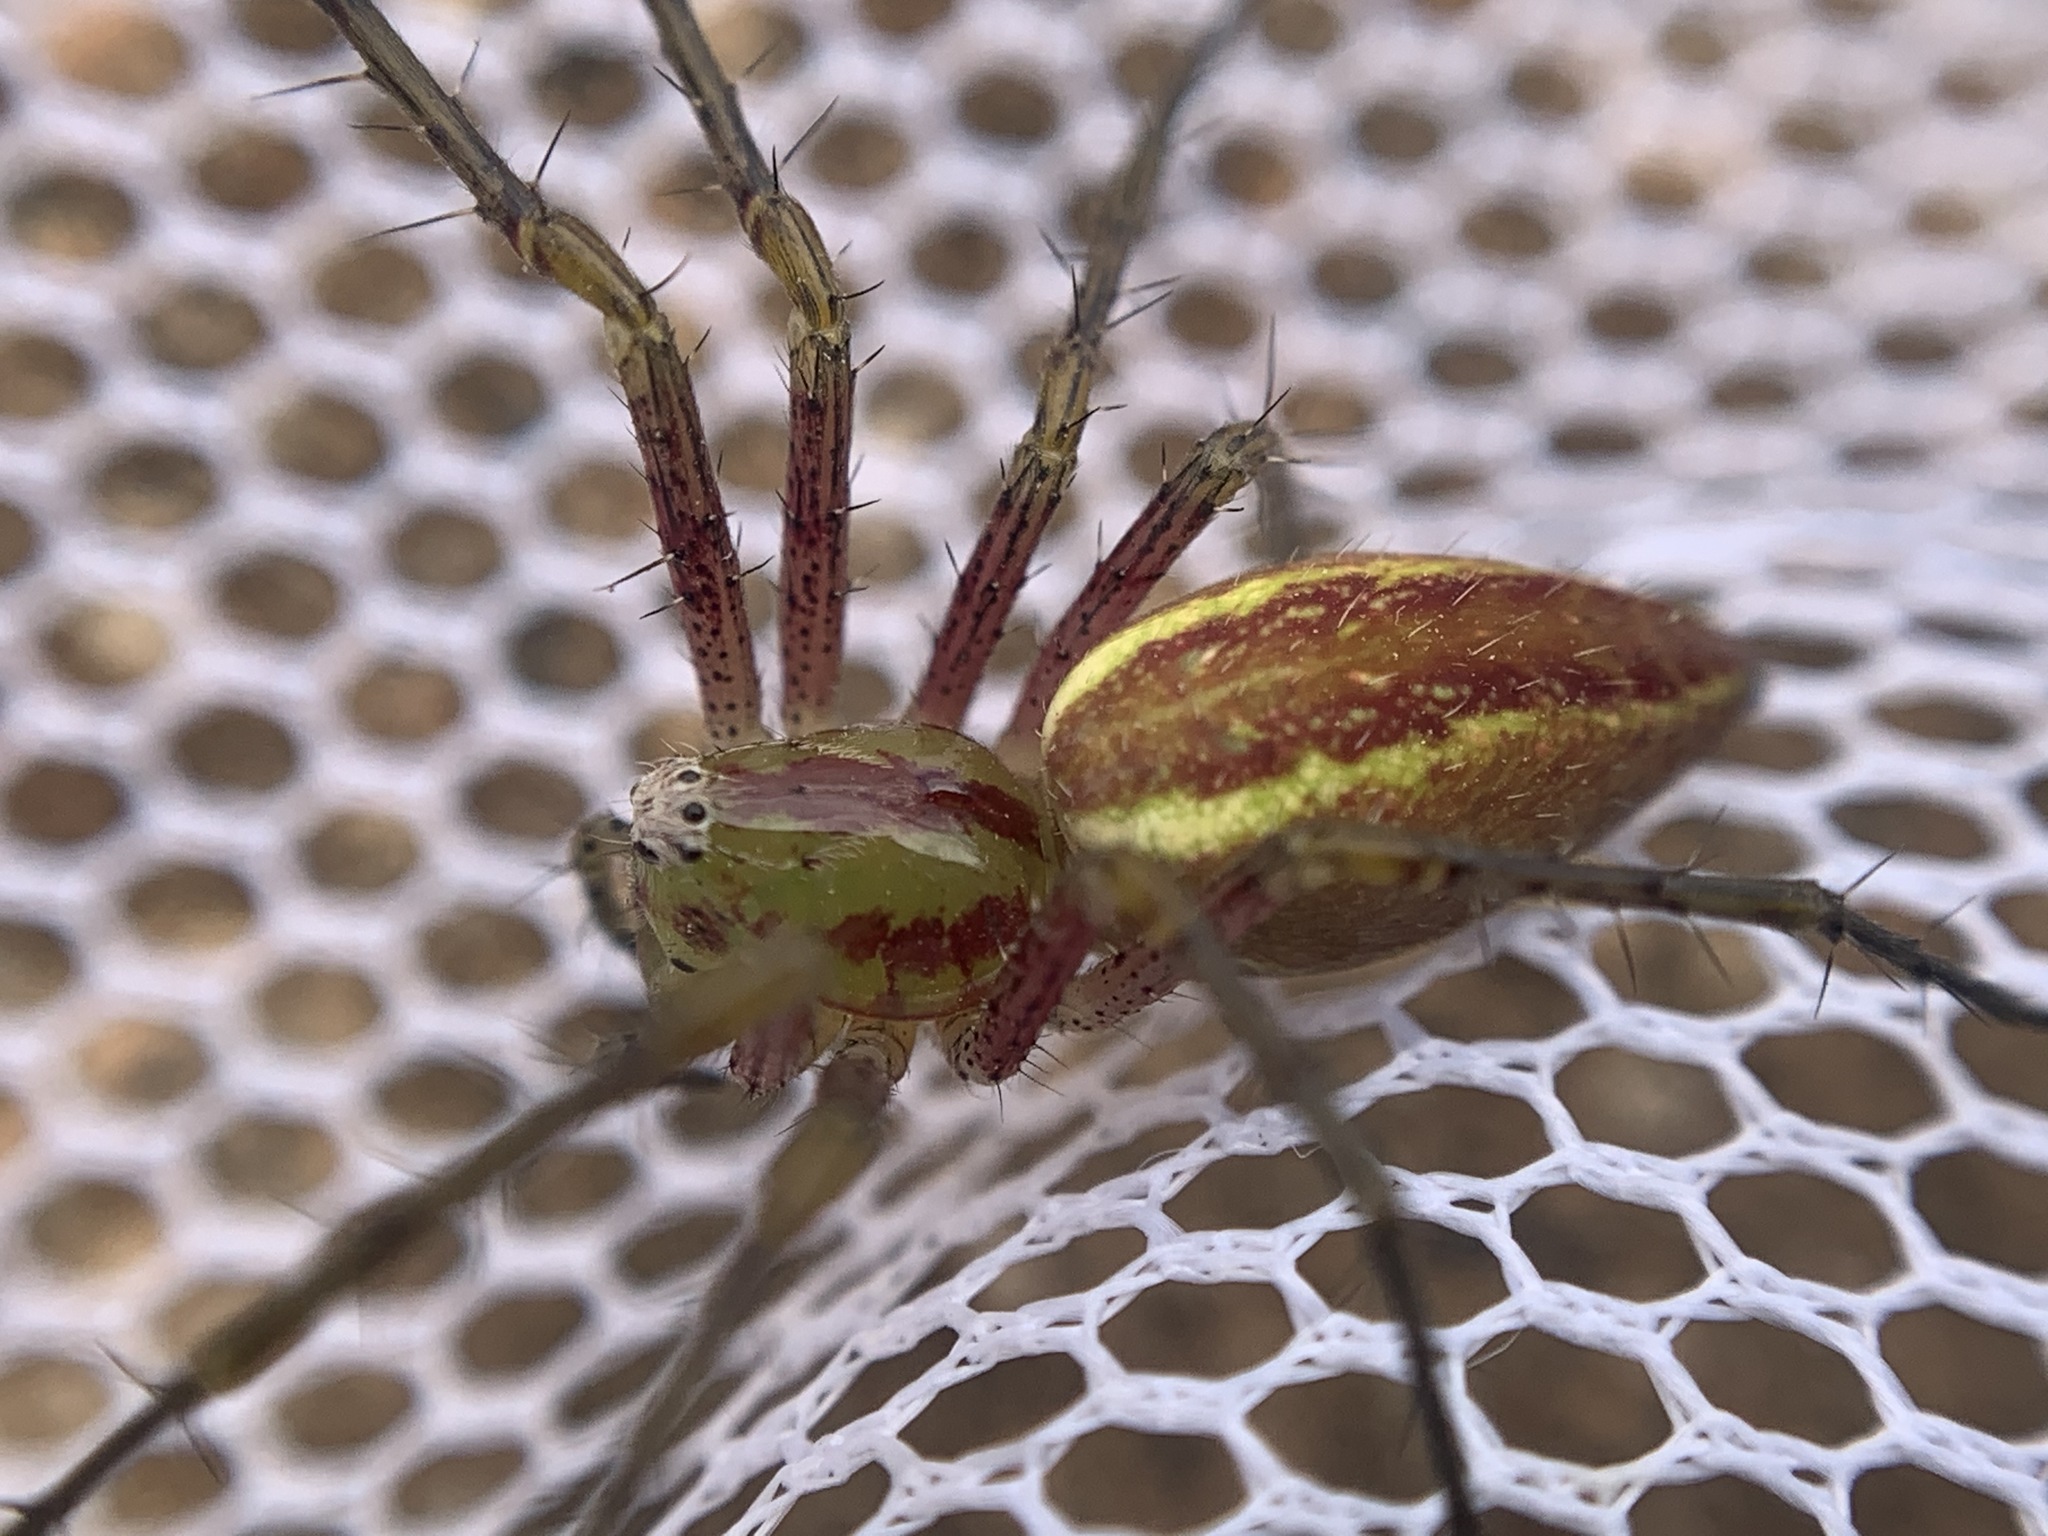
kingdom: Animalia
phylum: Arthropoda
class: Arachnida
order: Araneae
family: Oxyopidae
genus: Peucetia
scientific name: Peucetia viridans
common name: Lynx spiders
